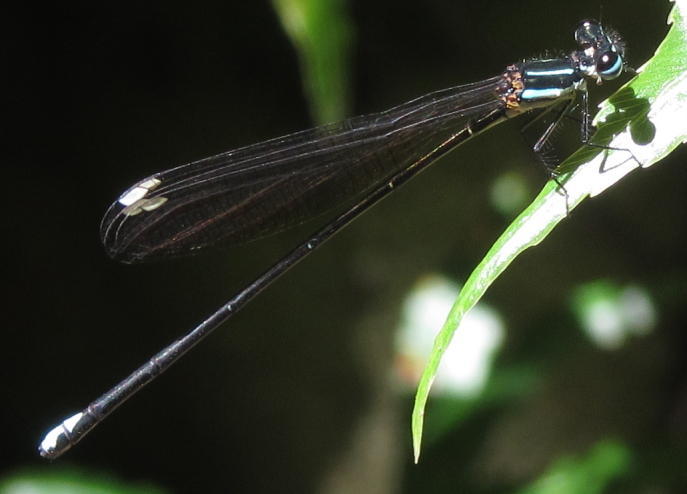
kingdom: Animalia
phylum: Arthropoda
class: Insecta
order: Odonata
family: Platycnemididae
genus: Allocnemis
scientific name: Allocnemis leucosticta
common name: Goldtail
